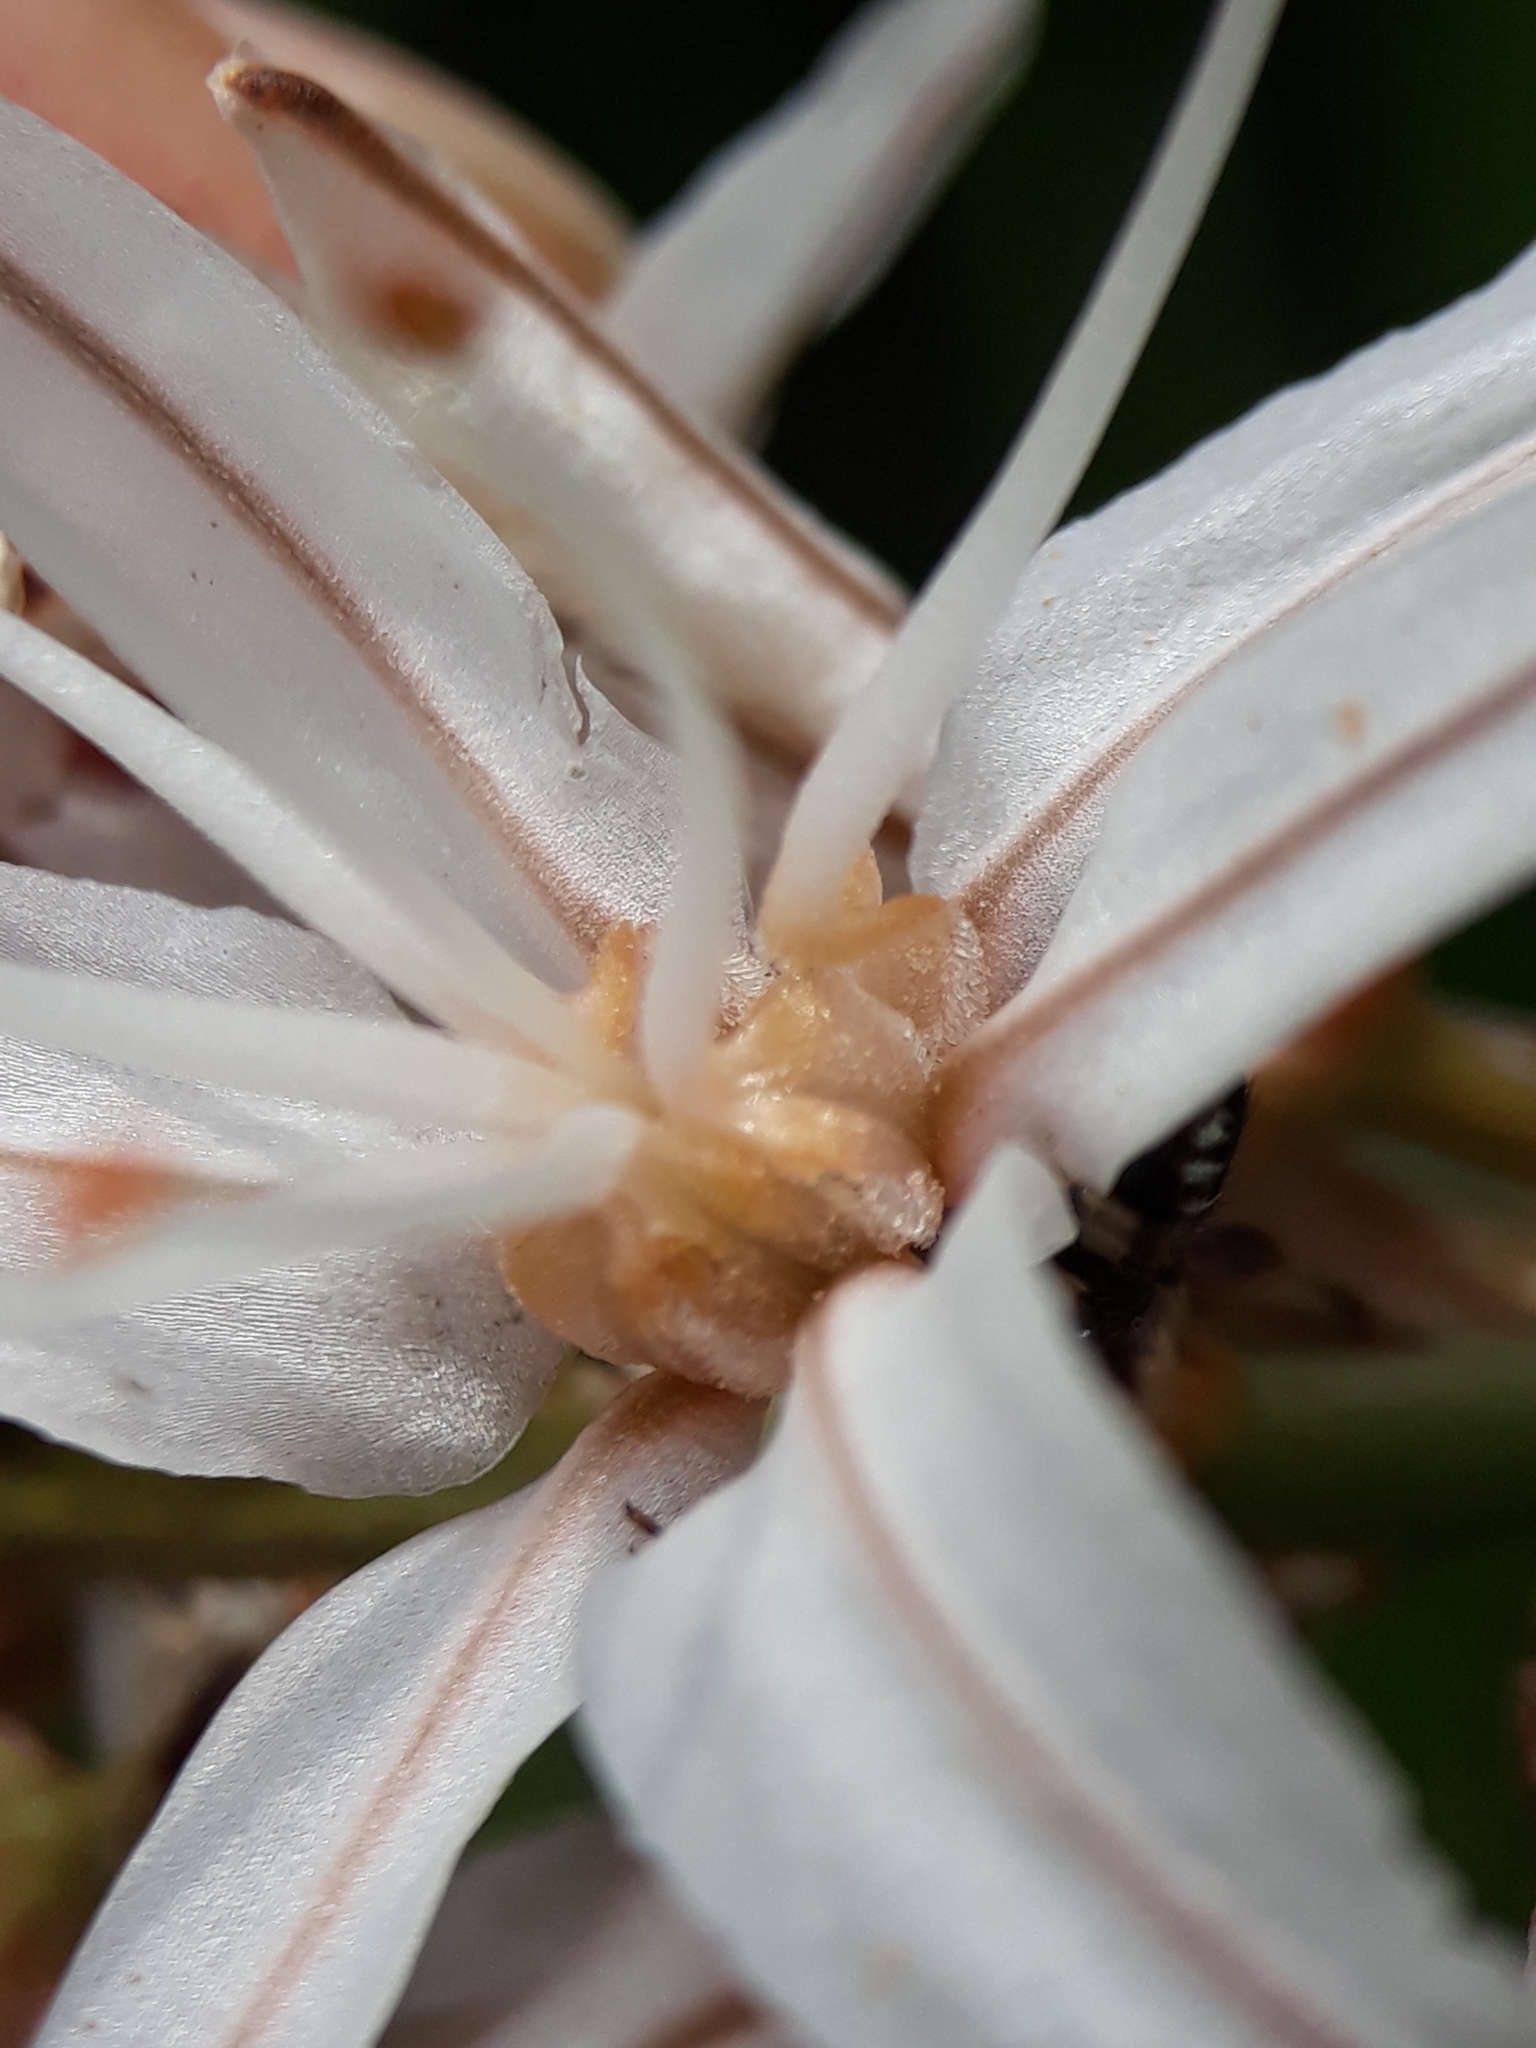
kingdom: Plantae
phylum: Tracheophyta
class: Liliopsida
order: Asparagales
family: Asphodelaceae
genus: Asphodelus
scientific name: Asphodelus ramosus
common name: Silverrod
